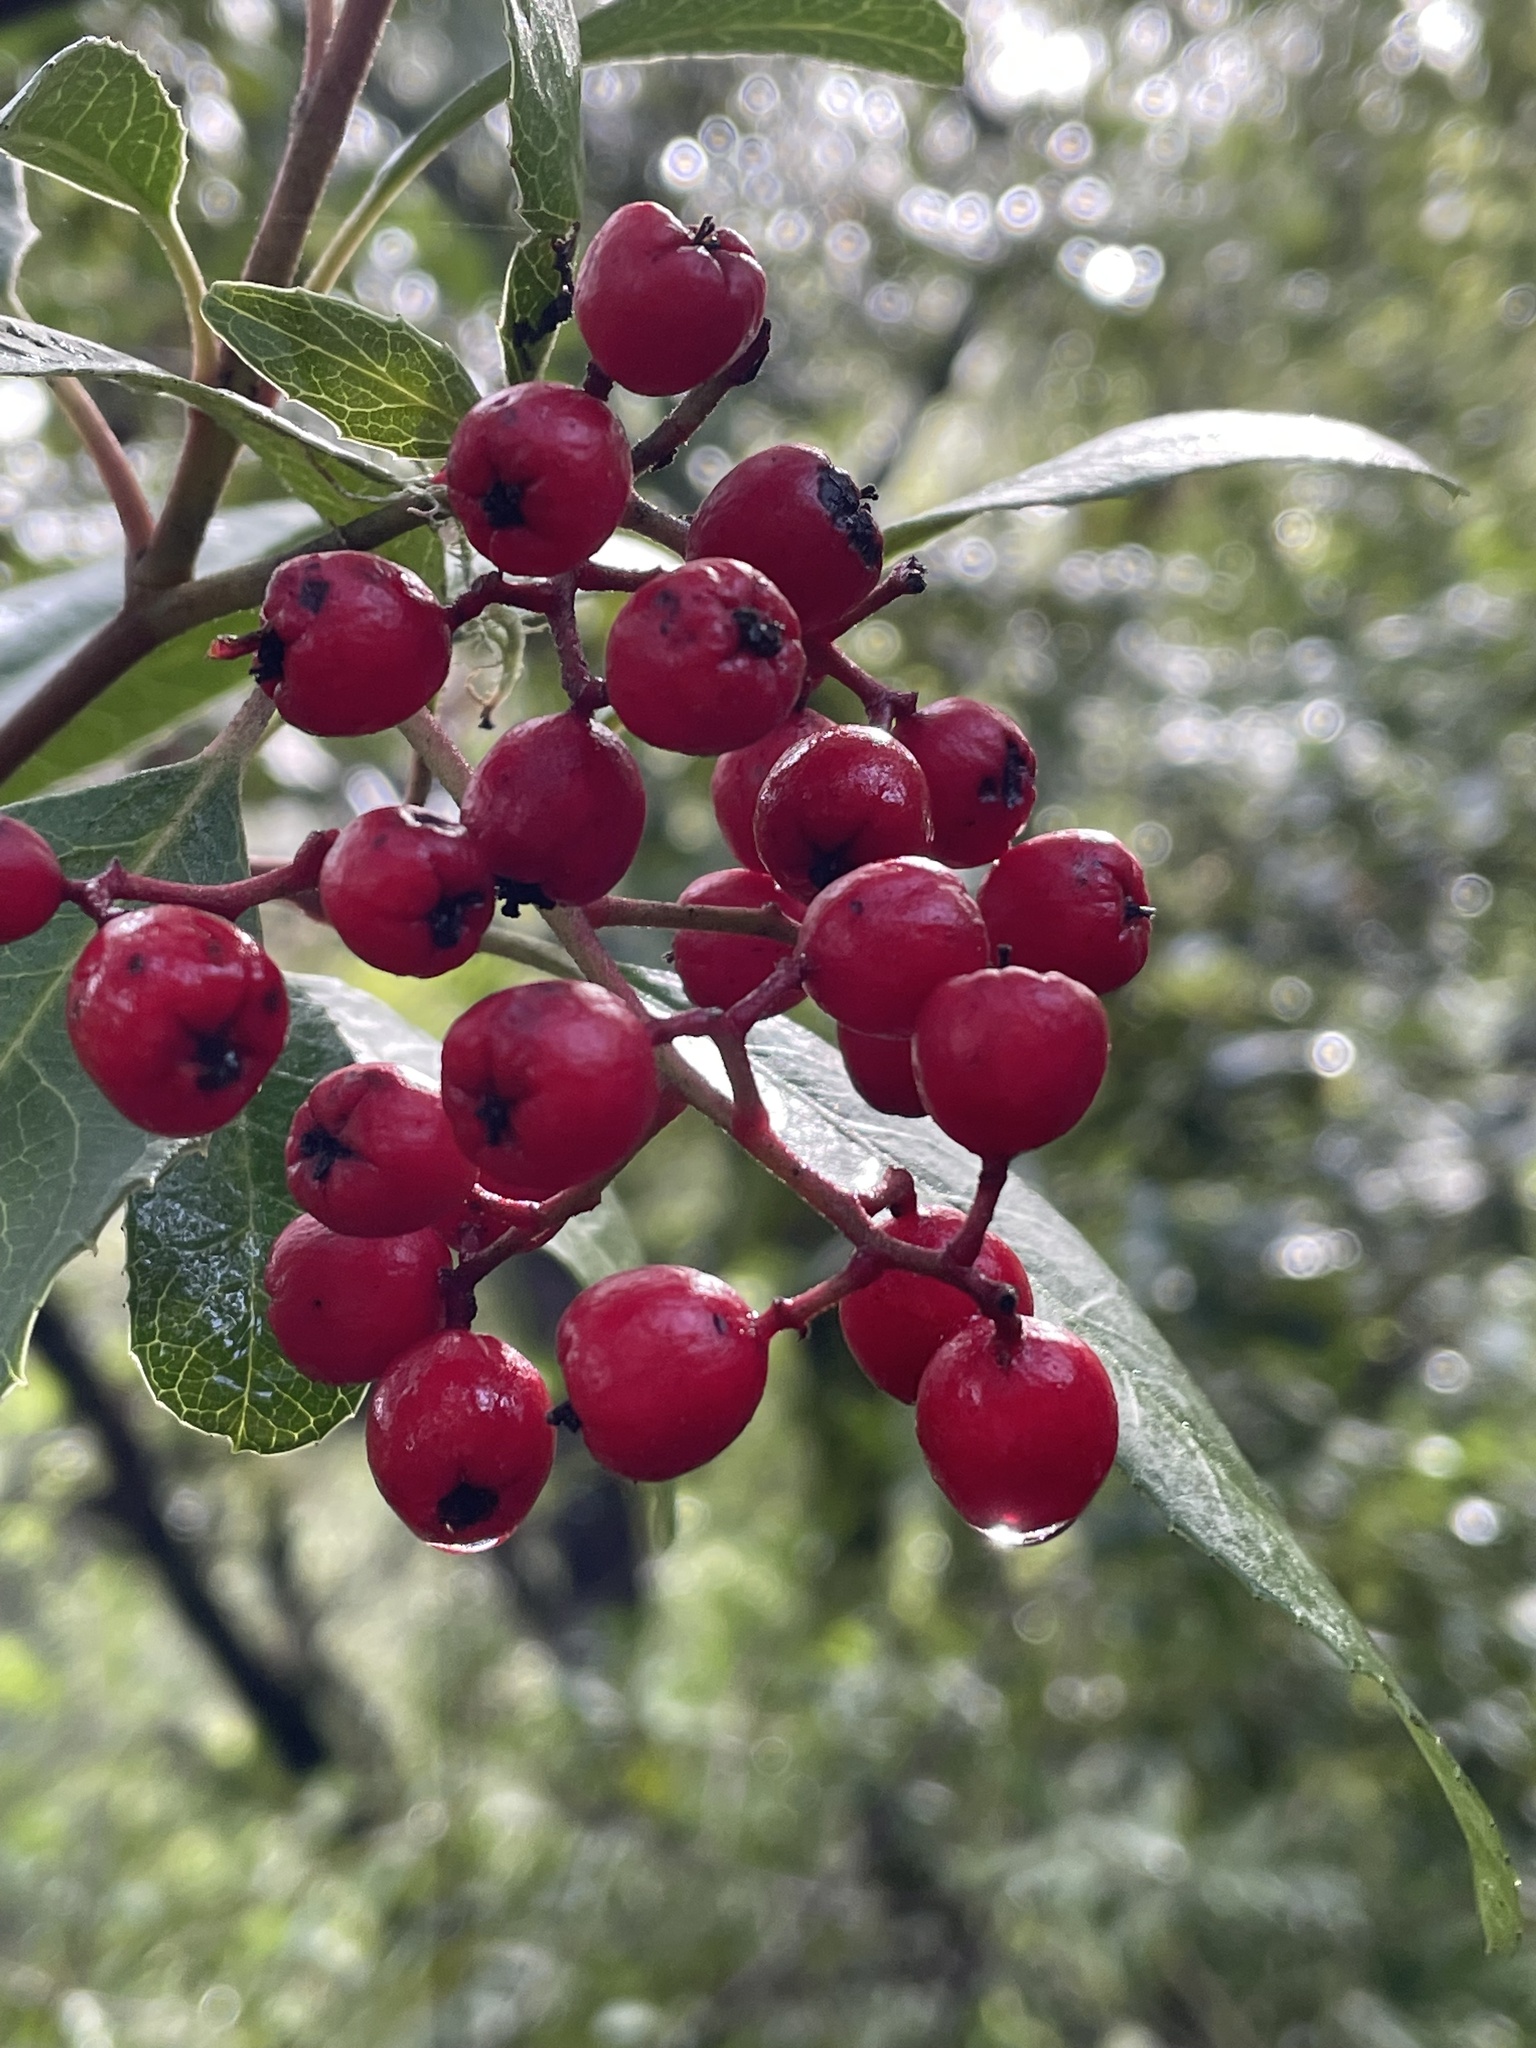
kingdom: Plantae
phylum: Tracheophyta
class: Magnoliopsida
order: Rosales
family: Rosaceae
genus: Heteromeles
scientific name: Heteromeles arbutifolia
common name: California-holly
